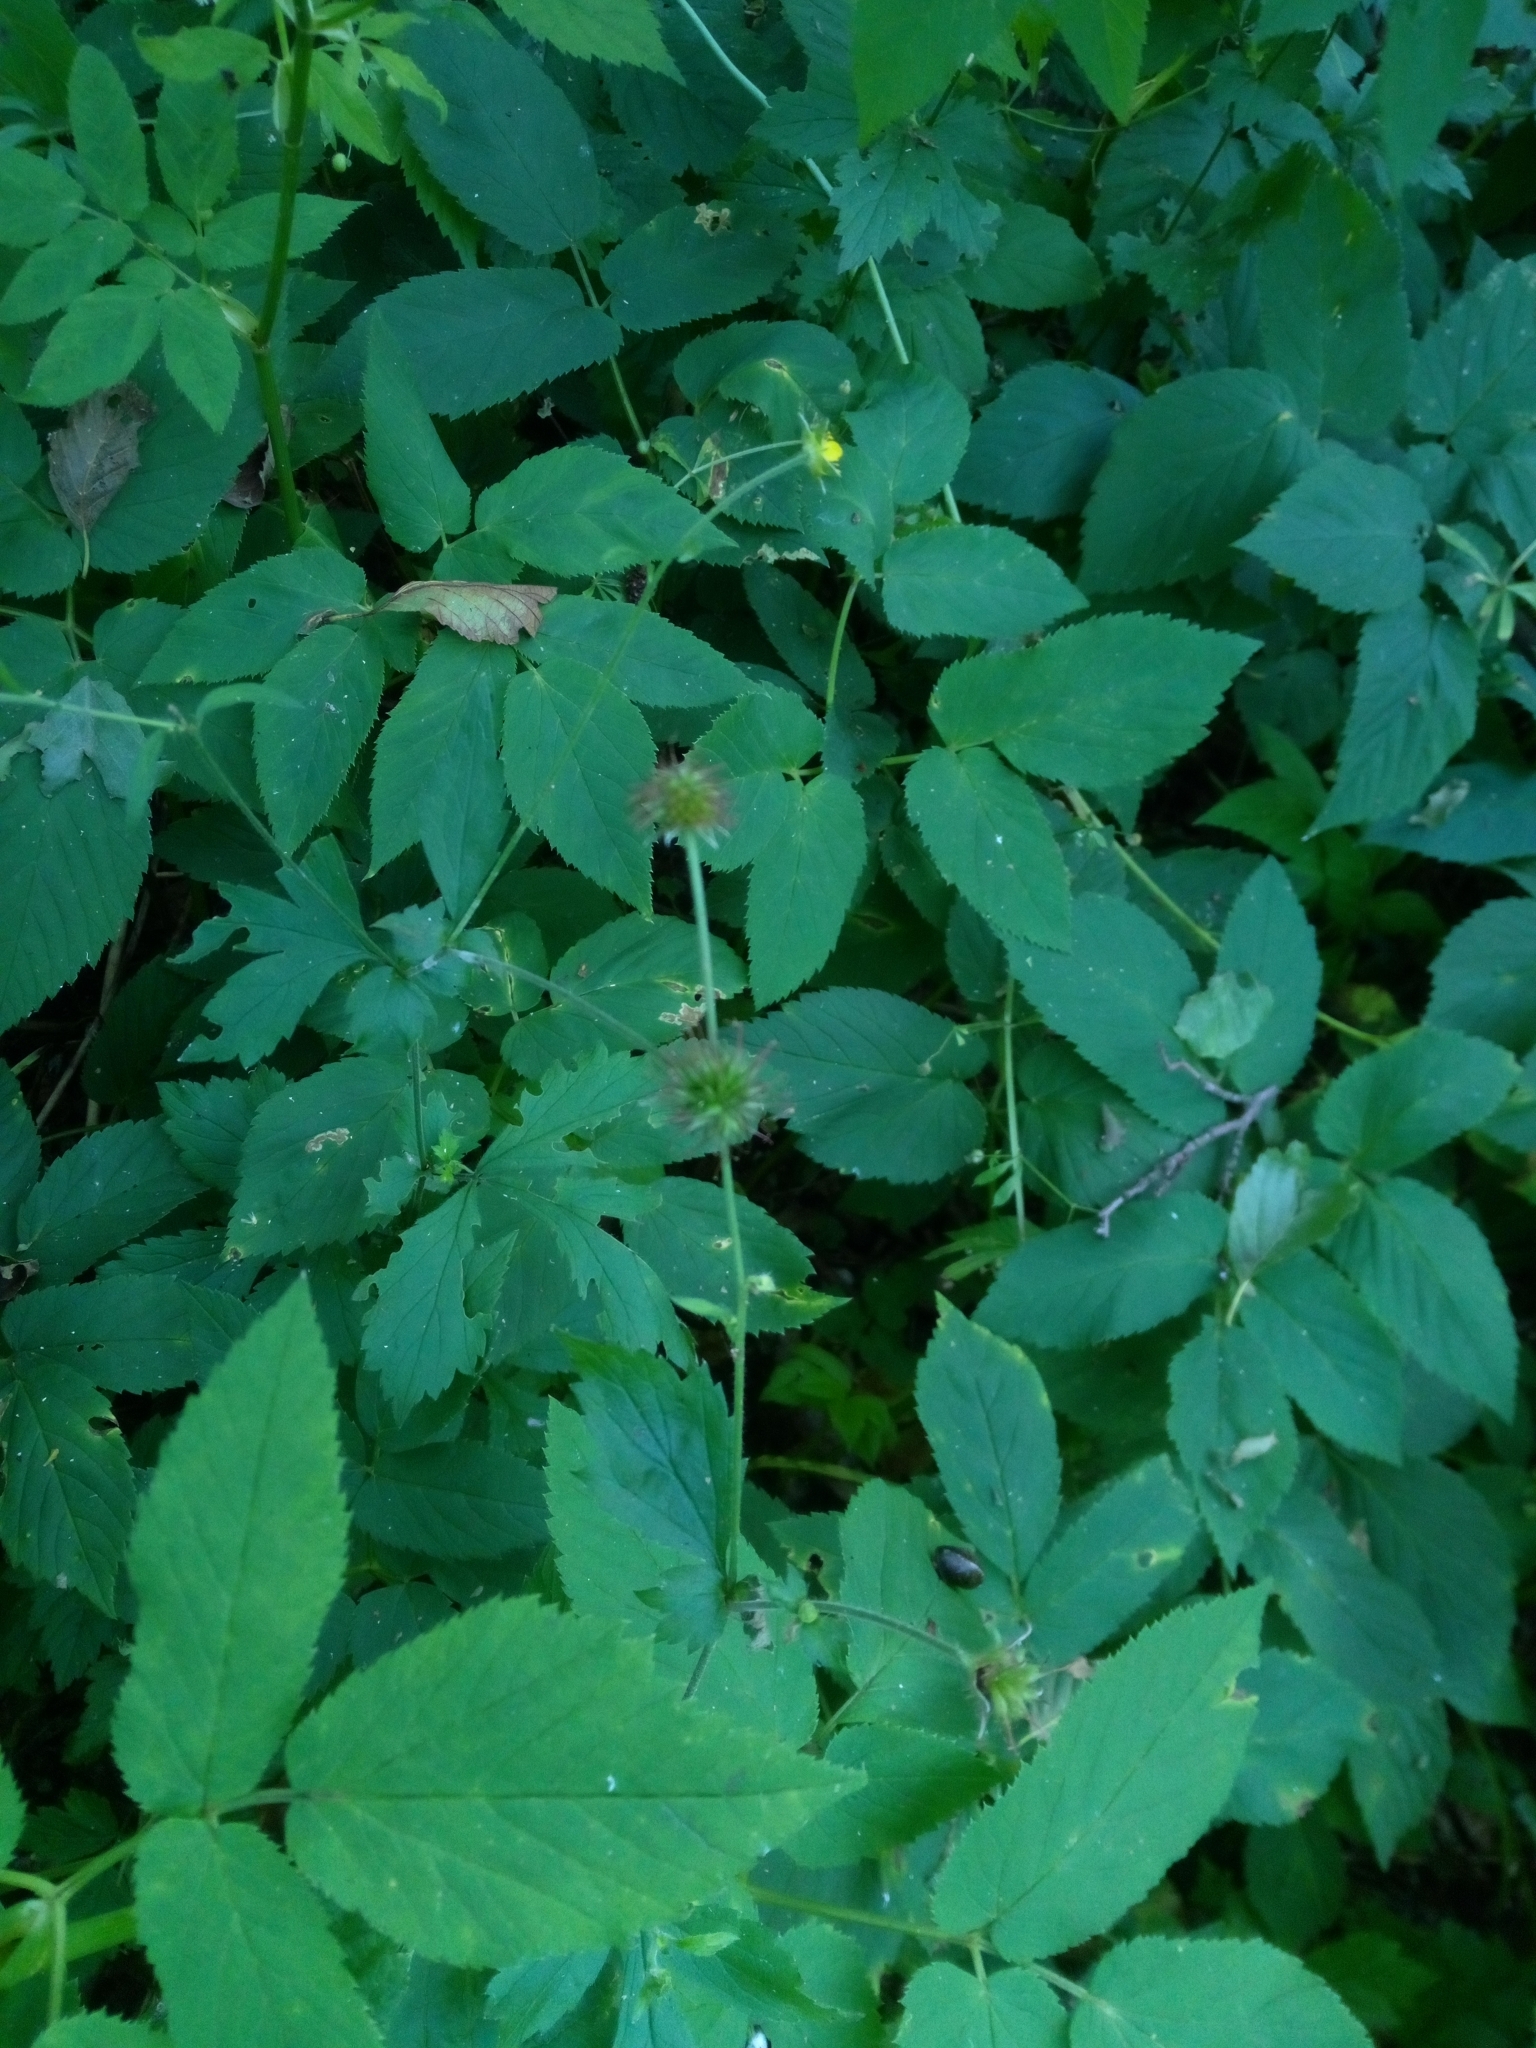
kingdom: Plantae
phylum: Tracheophyta
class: Magnoliopsida
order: Rosales
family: Rosaceae
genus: Geum
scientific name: Geum urbanum
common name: Wood avens
